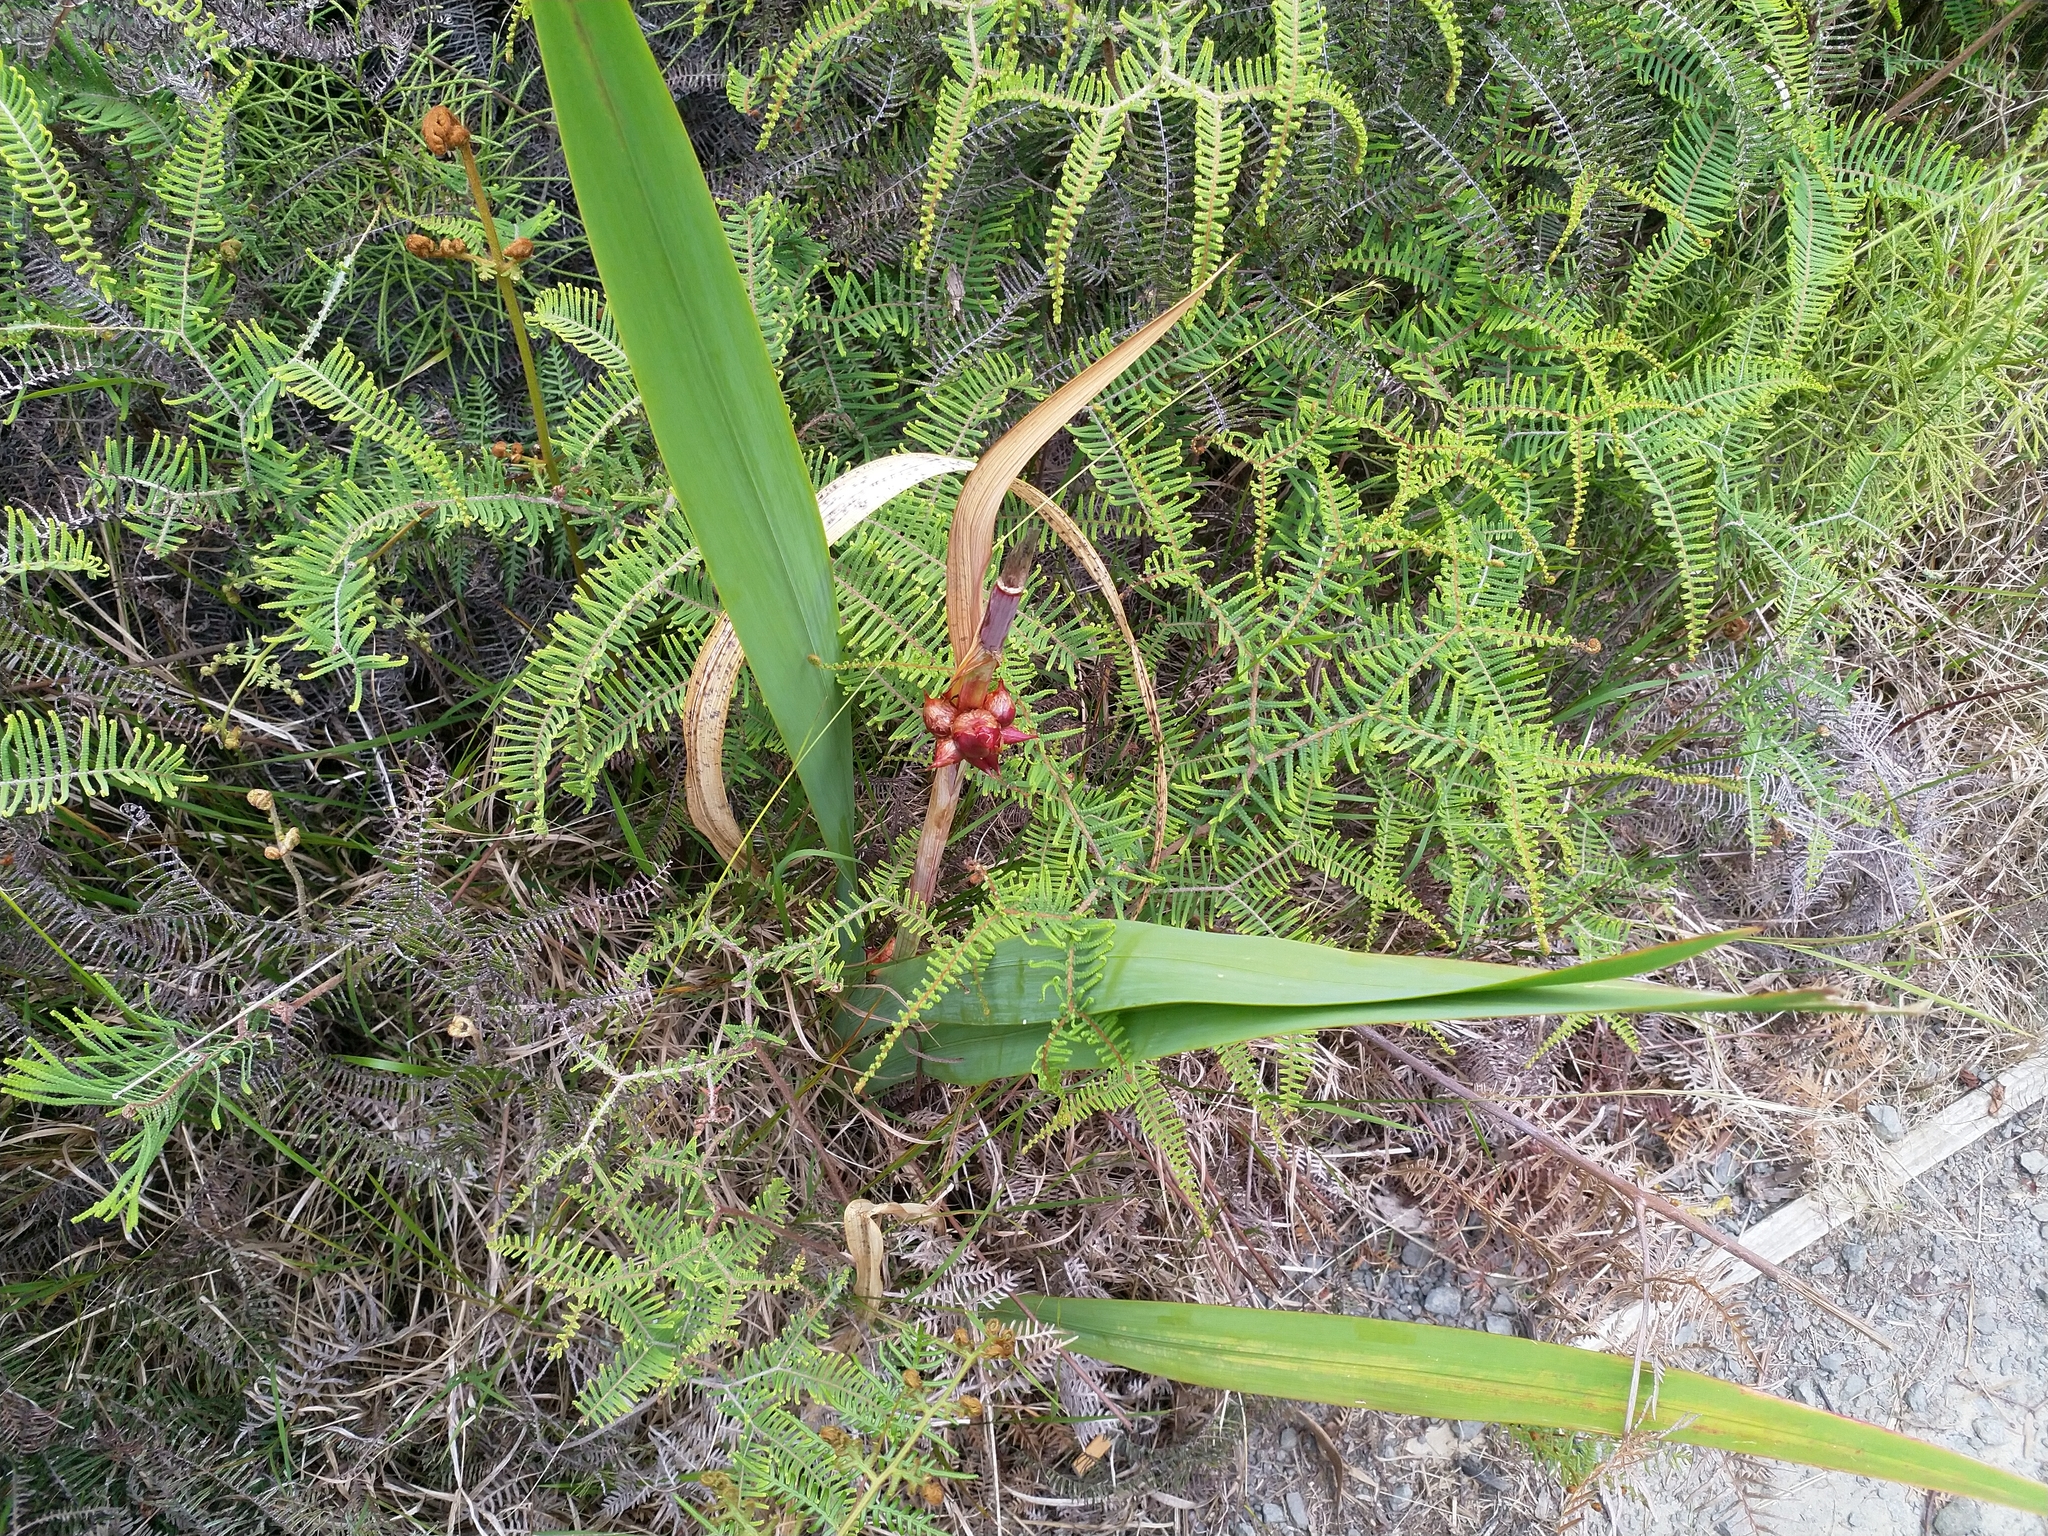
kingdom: Plantae
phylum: Tracheophyta
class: Liliopsida
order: Asparagales
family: Iridaceae
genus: Watsonia
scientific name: Watsonia meriana
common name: Bulbil bugle-lily
